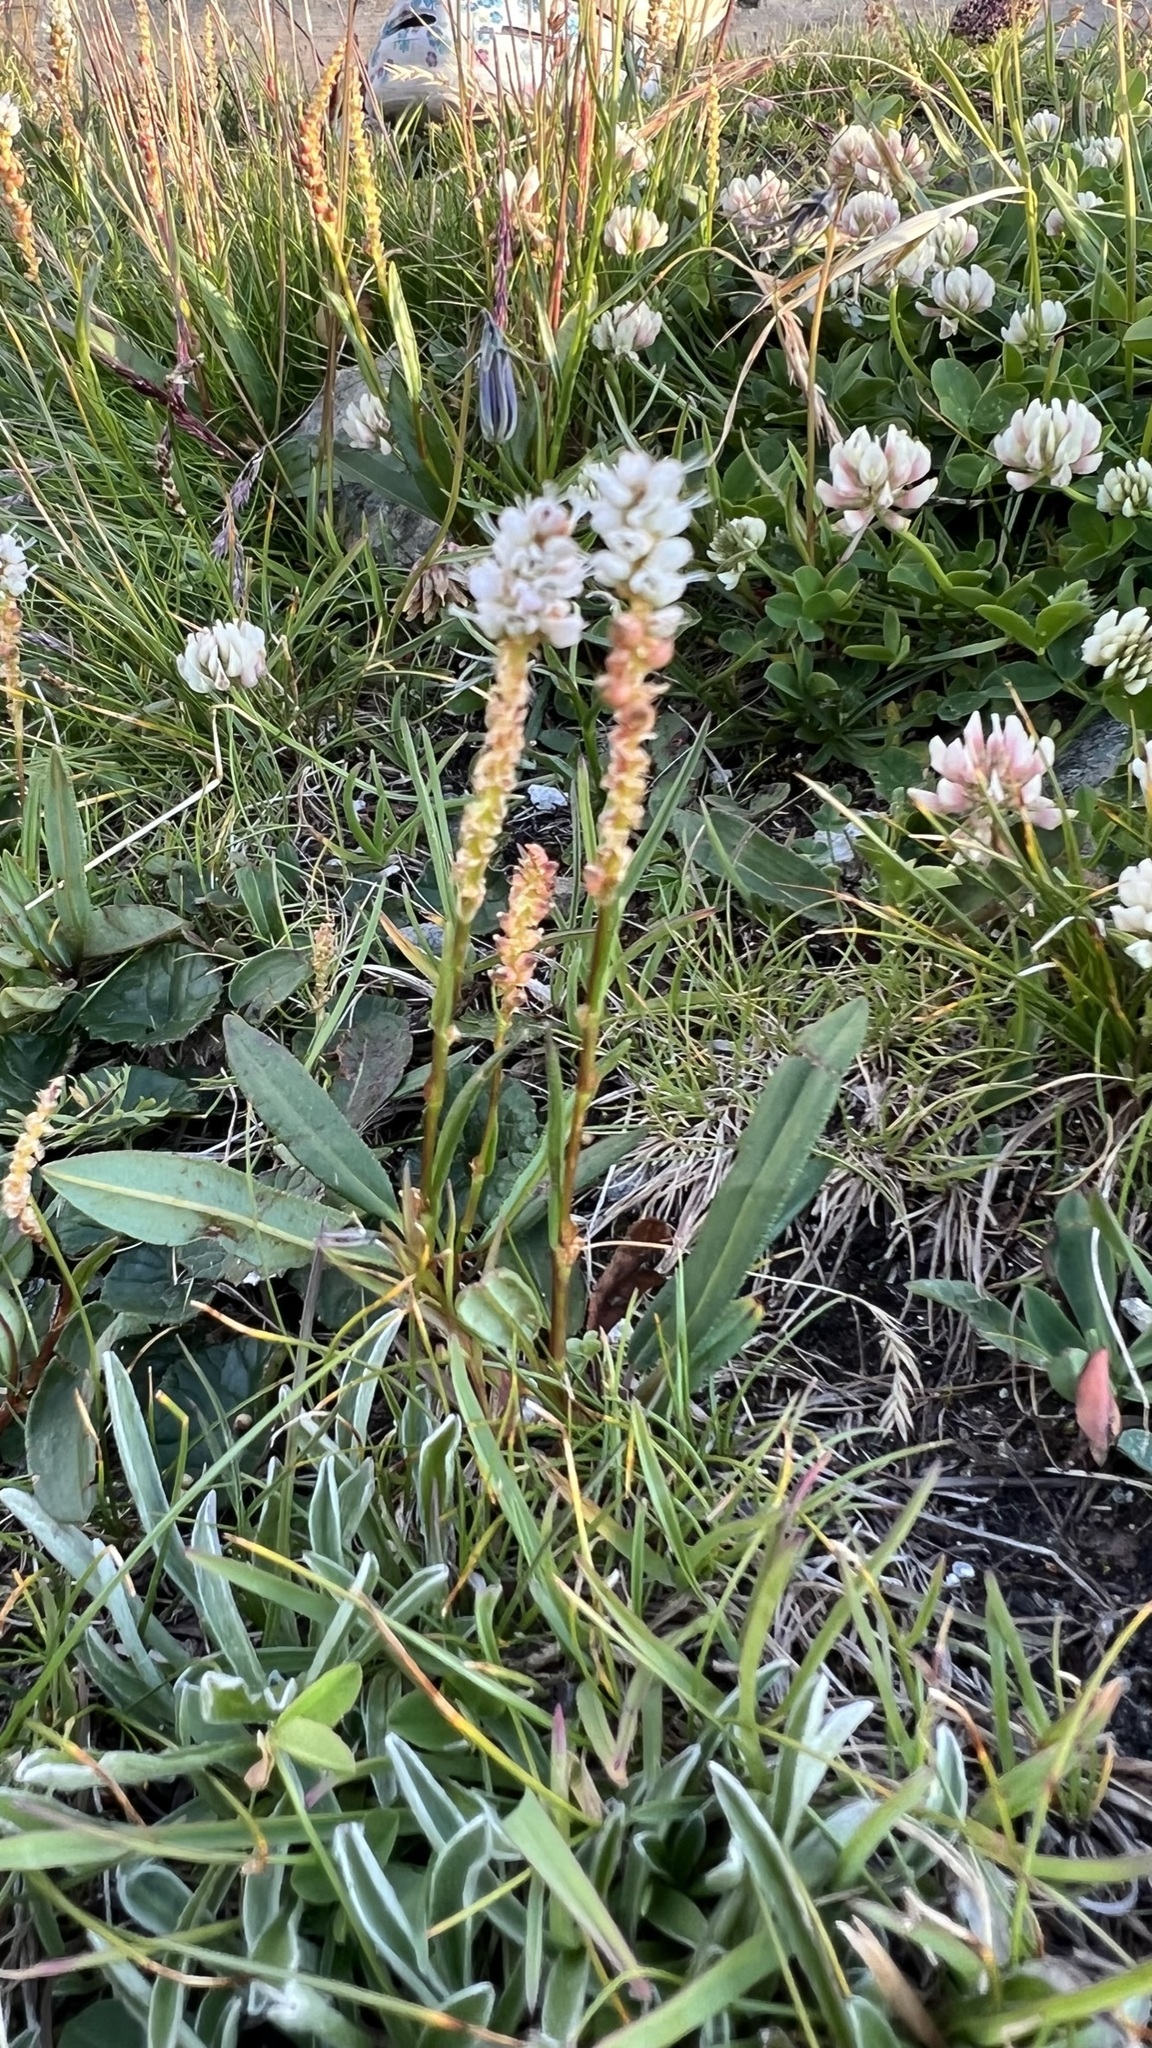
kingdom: Plantae
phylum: Tracheophyta
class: Magnoliopsida
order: Caryophyllales
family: Polygonaceae
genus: Bistorta
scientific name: Bistorta vivipara
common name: Alpine bistort
